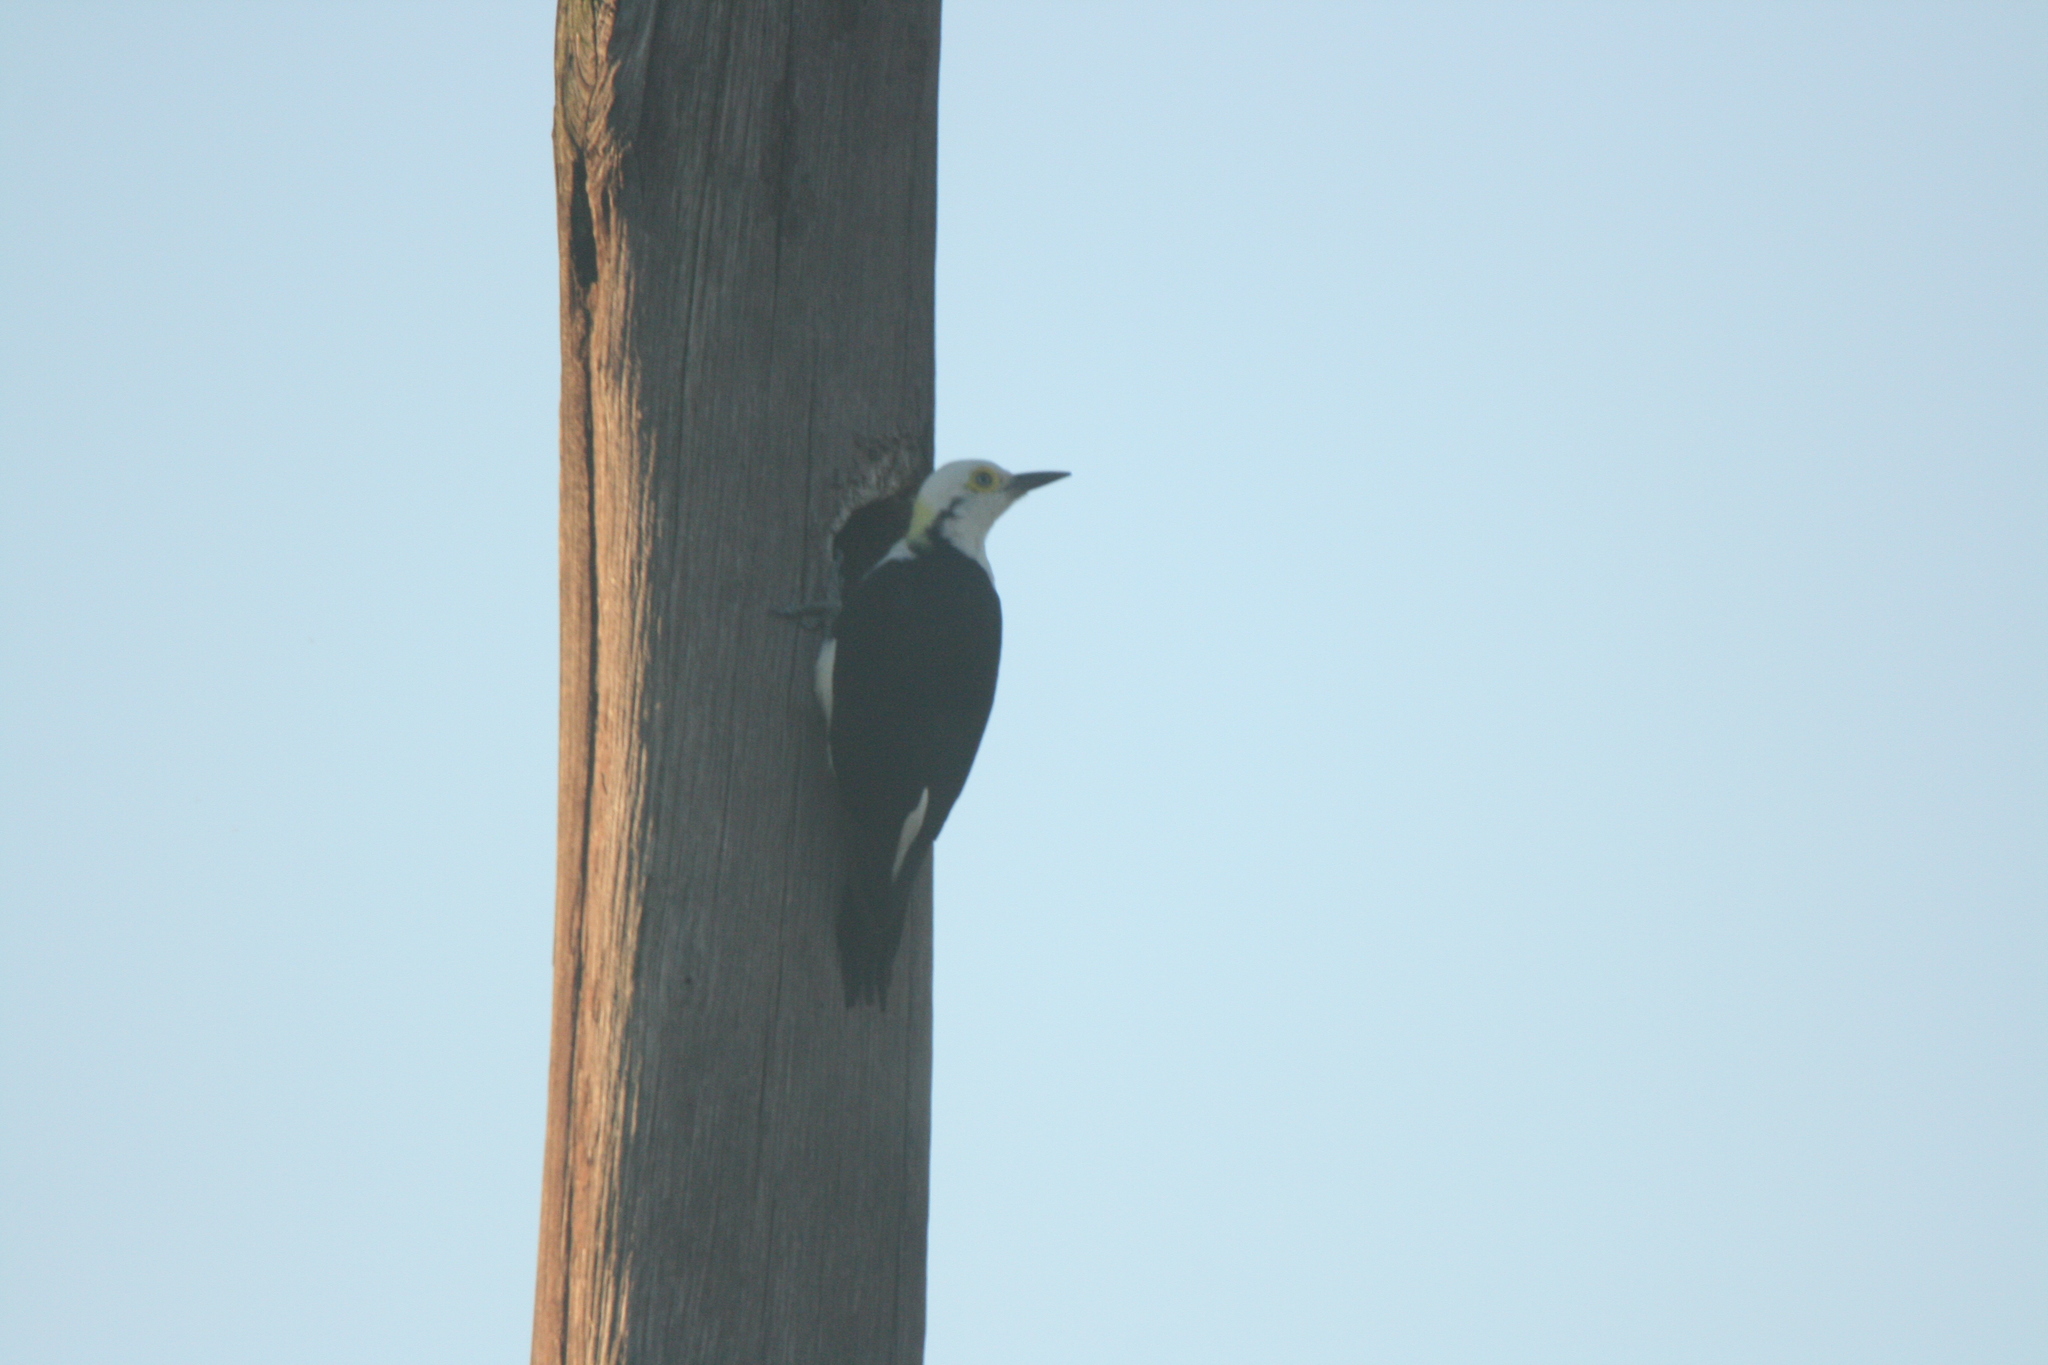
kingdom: Animalia
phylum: Chordata
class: Aves
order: Piciformes
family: Picidae
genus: Melanerpes
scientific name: Melanerpes candidus
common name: White woodpecker
